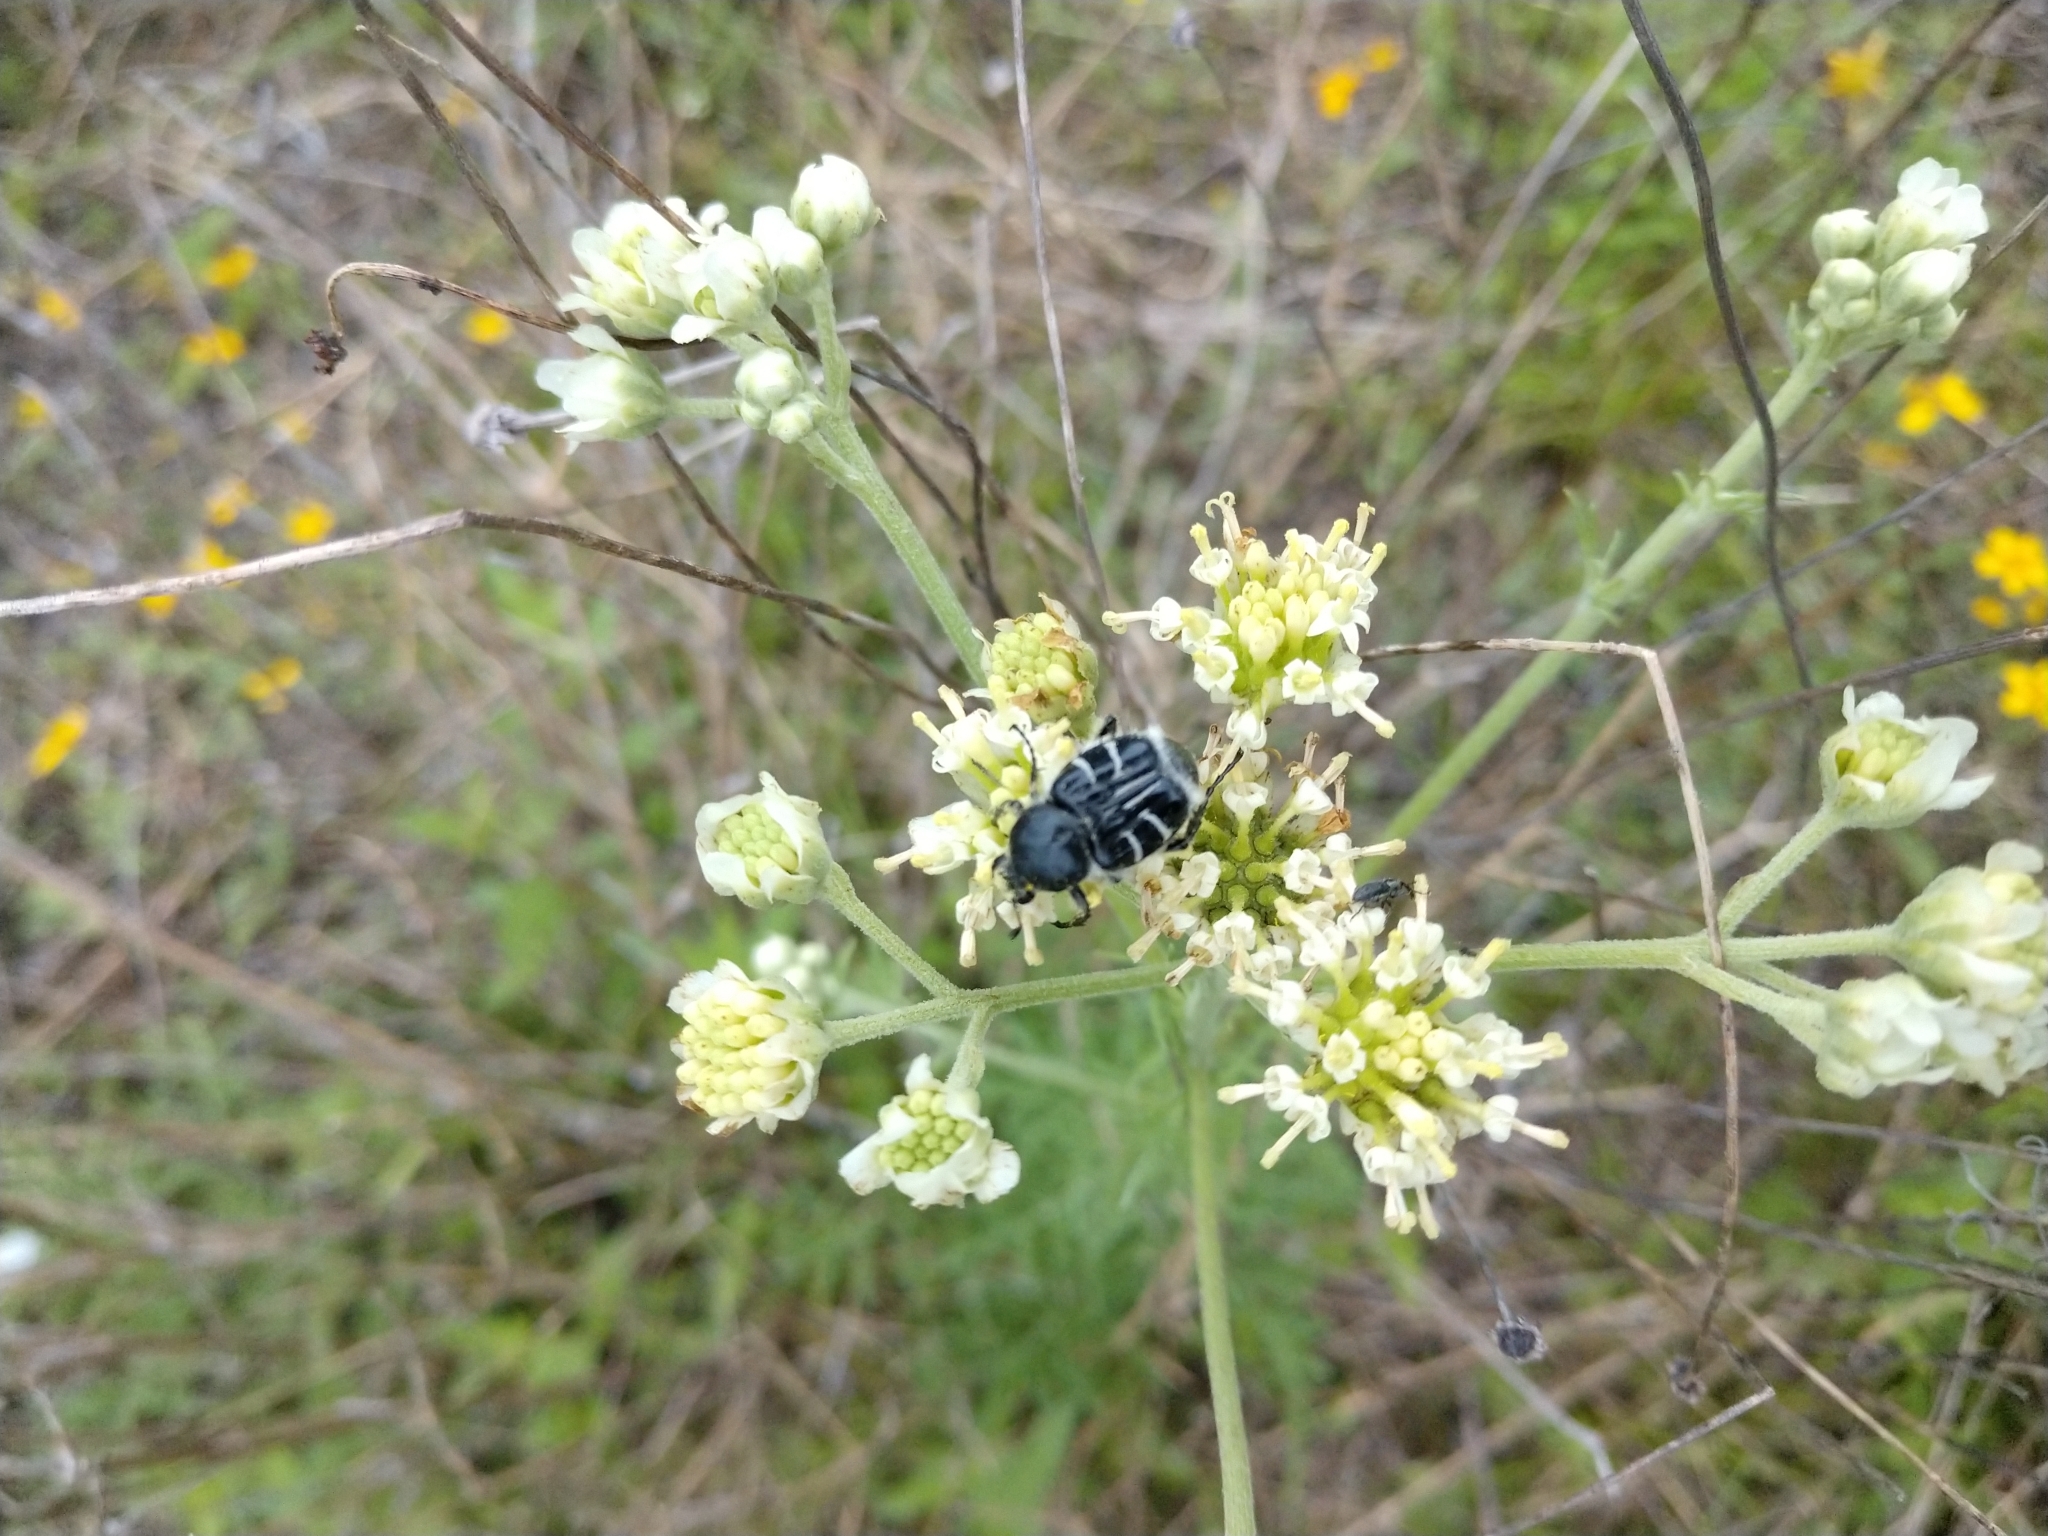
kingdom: Animalia
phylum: Arthropoda
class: Insecta
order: Coleoptera
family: Scarabaeidae
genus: Trichiotinus
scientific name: Trichiotinus texanus
